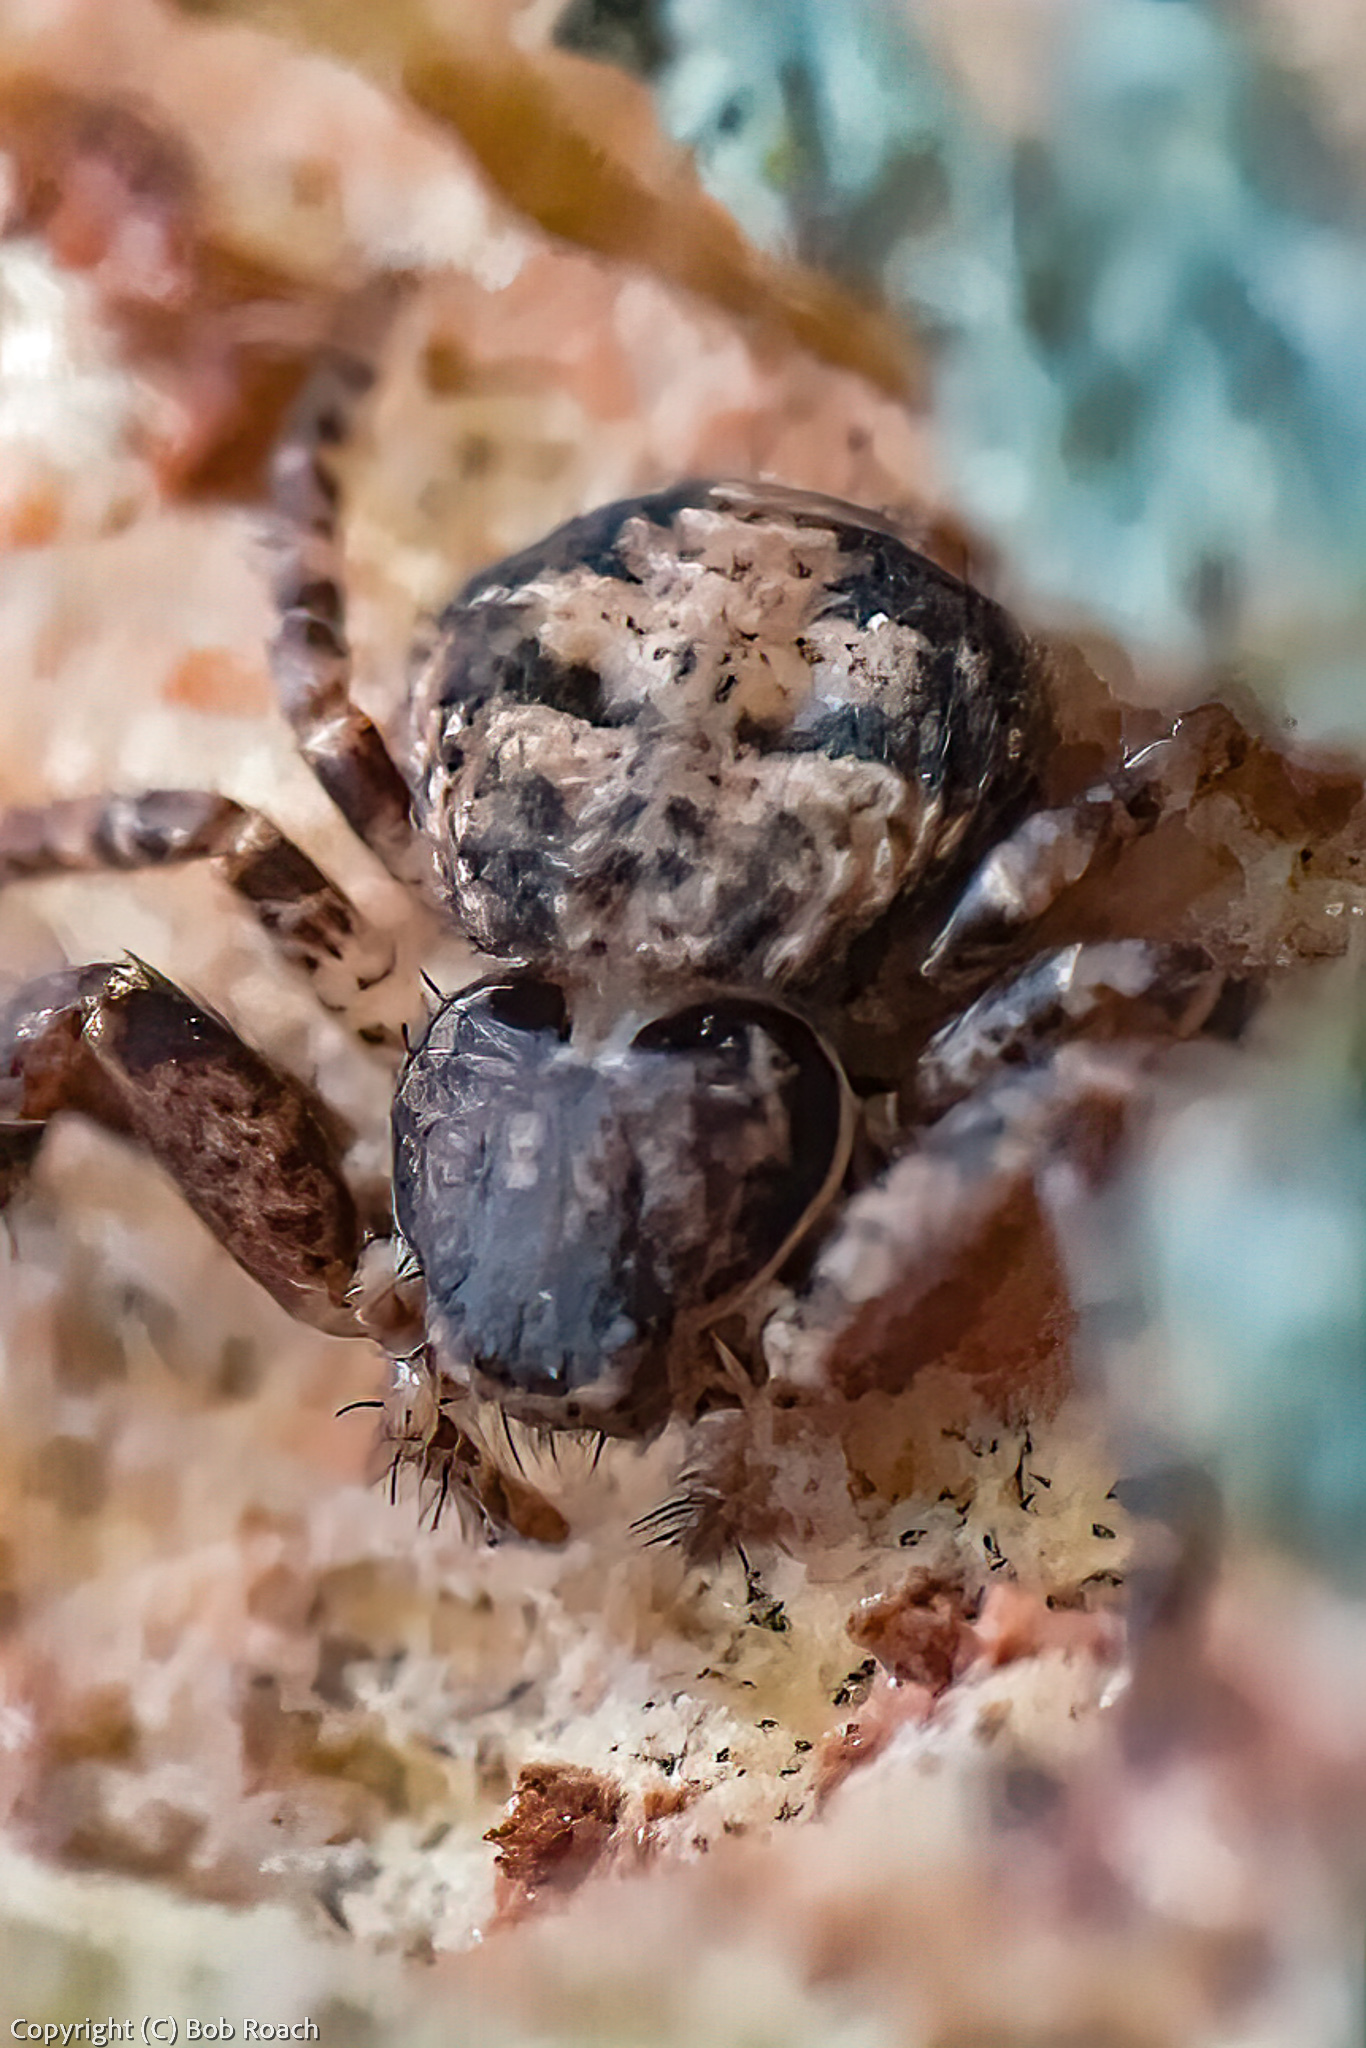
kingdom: Animalia
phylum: Arthropoda
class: Arachnida
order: Araneae
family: Thomisidae
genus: Bassaniana
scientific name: Bassaniana versicolor
